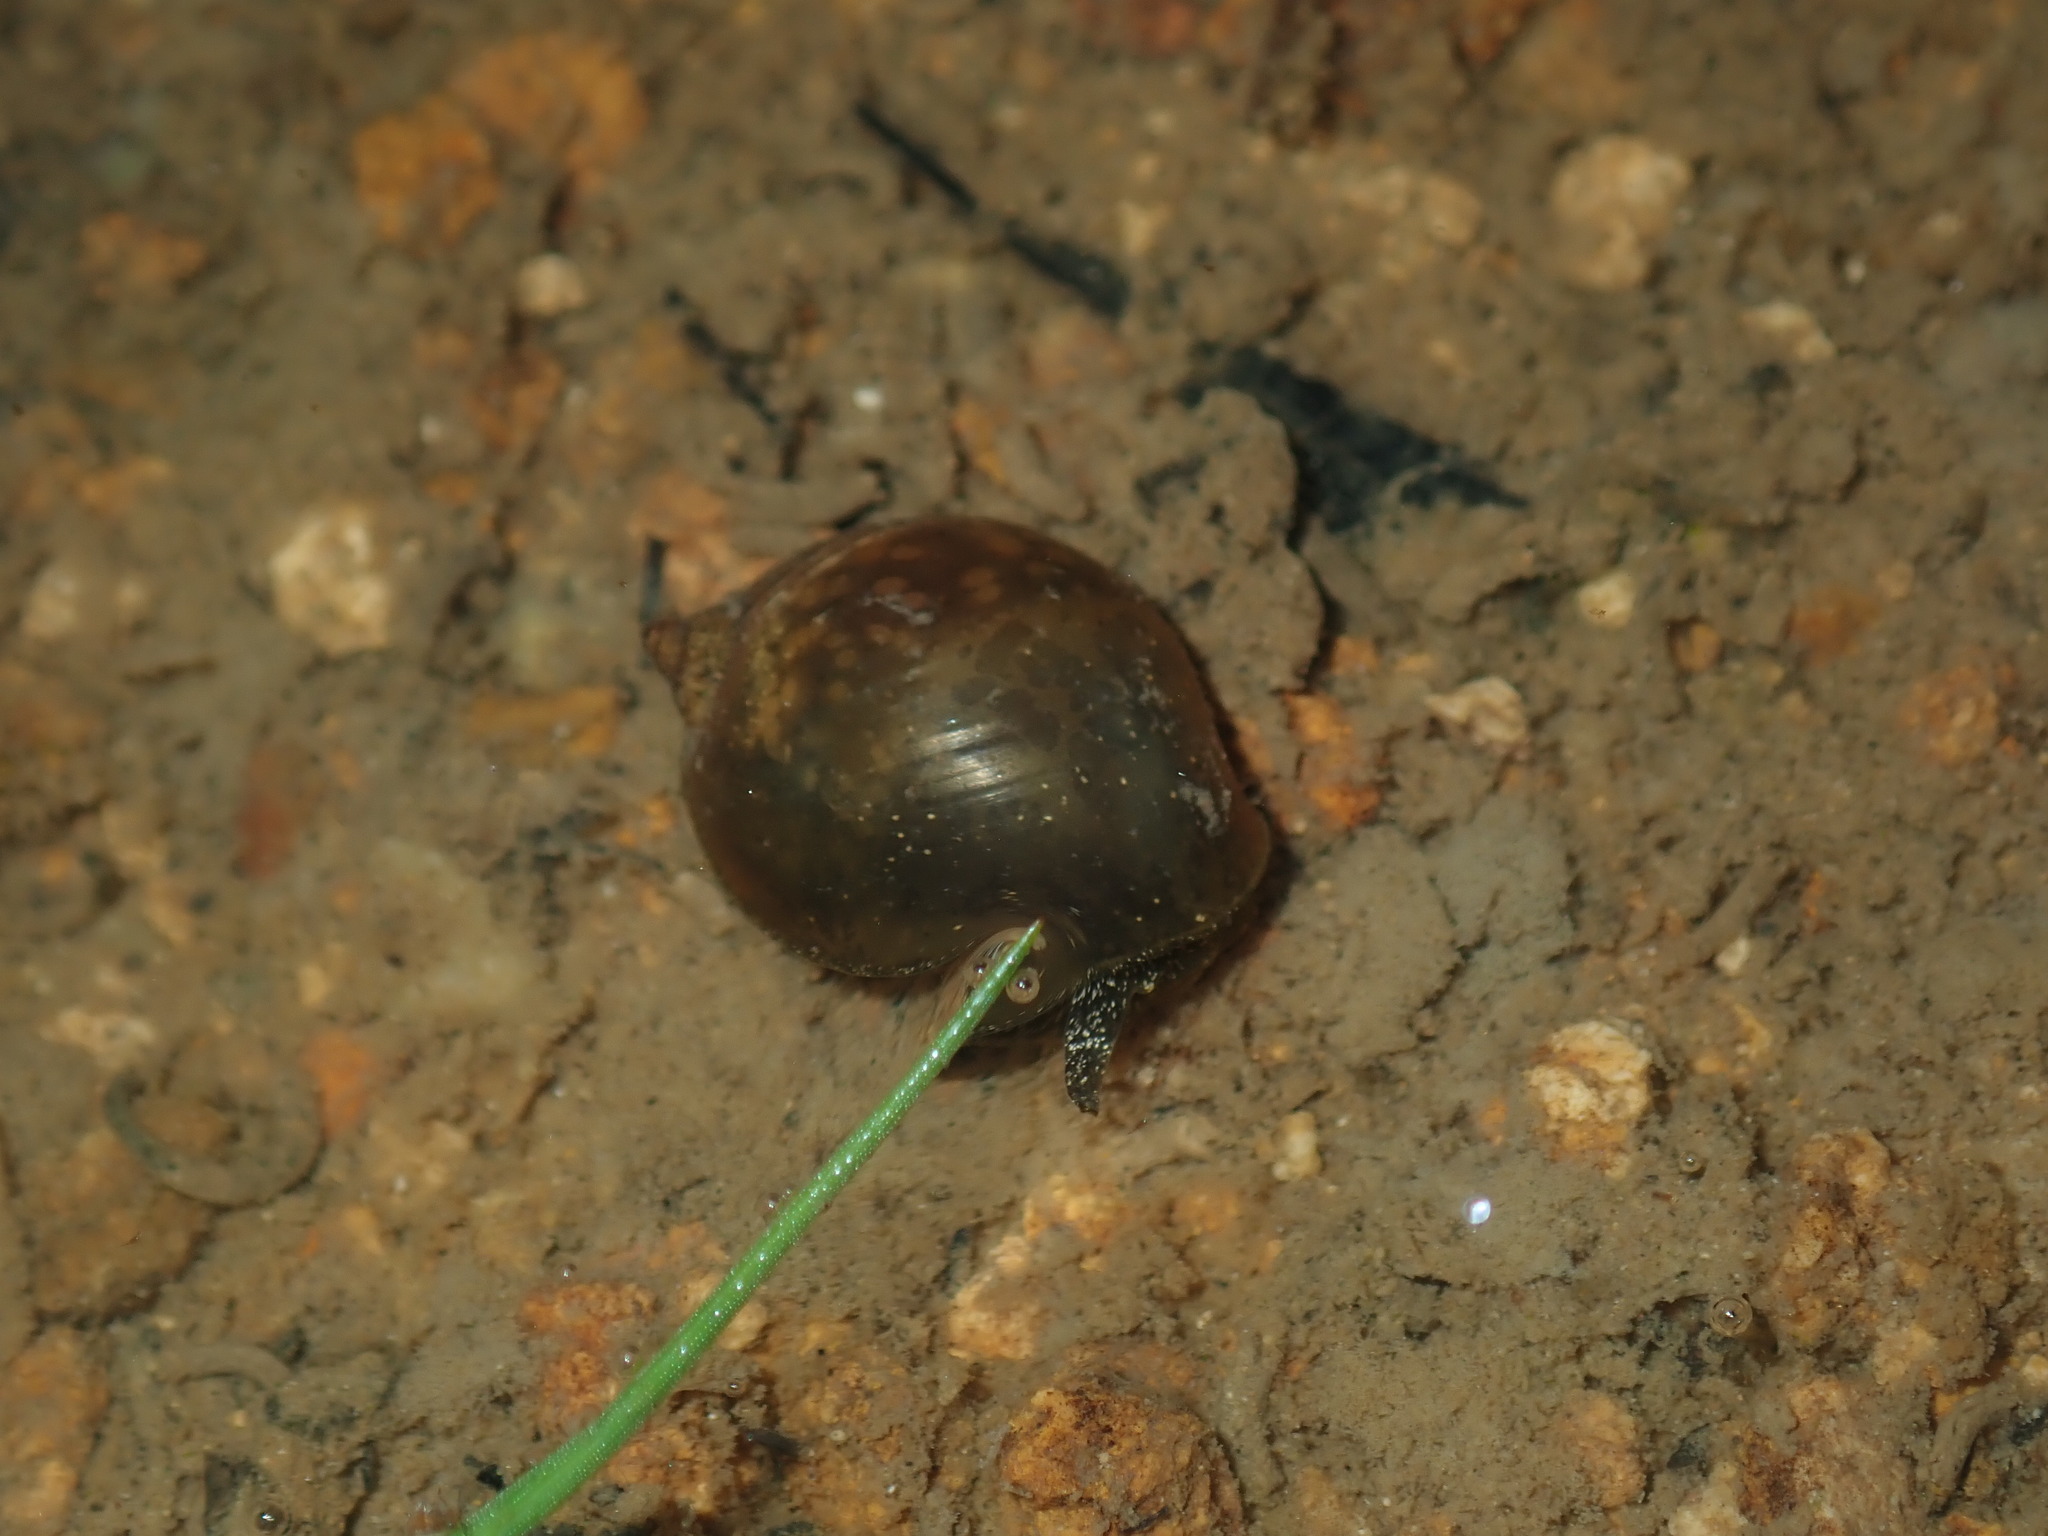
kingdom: Animalia
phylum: Mollusca
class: Gastropoda
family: Lymnaeidae
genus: Bullastra
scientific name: Bullastra lessoni
